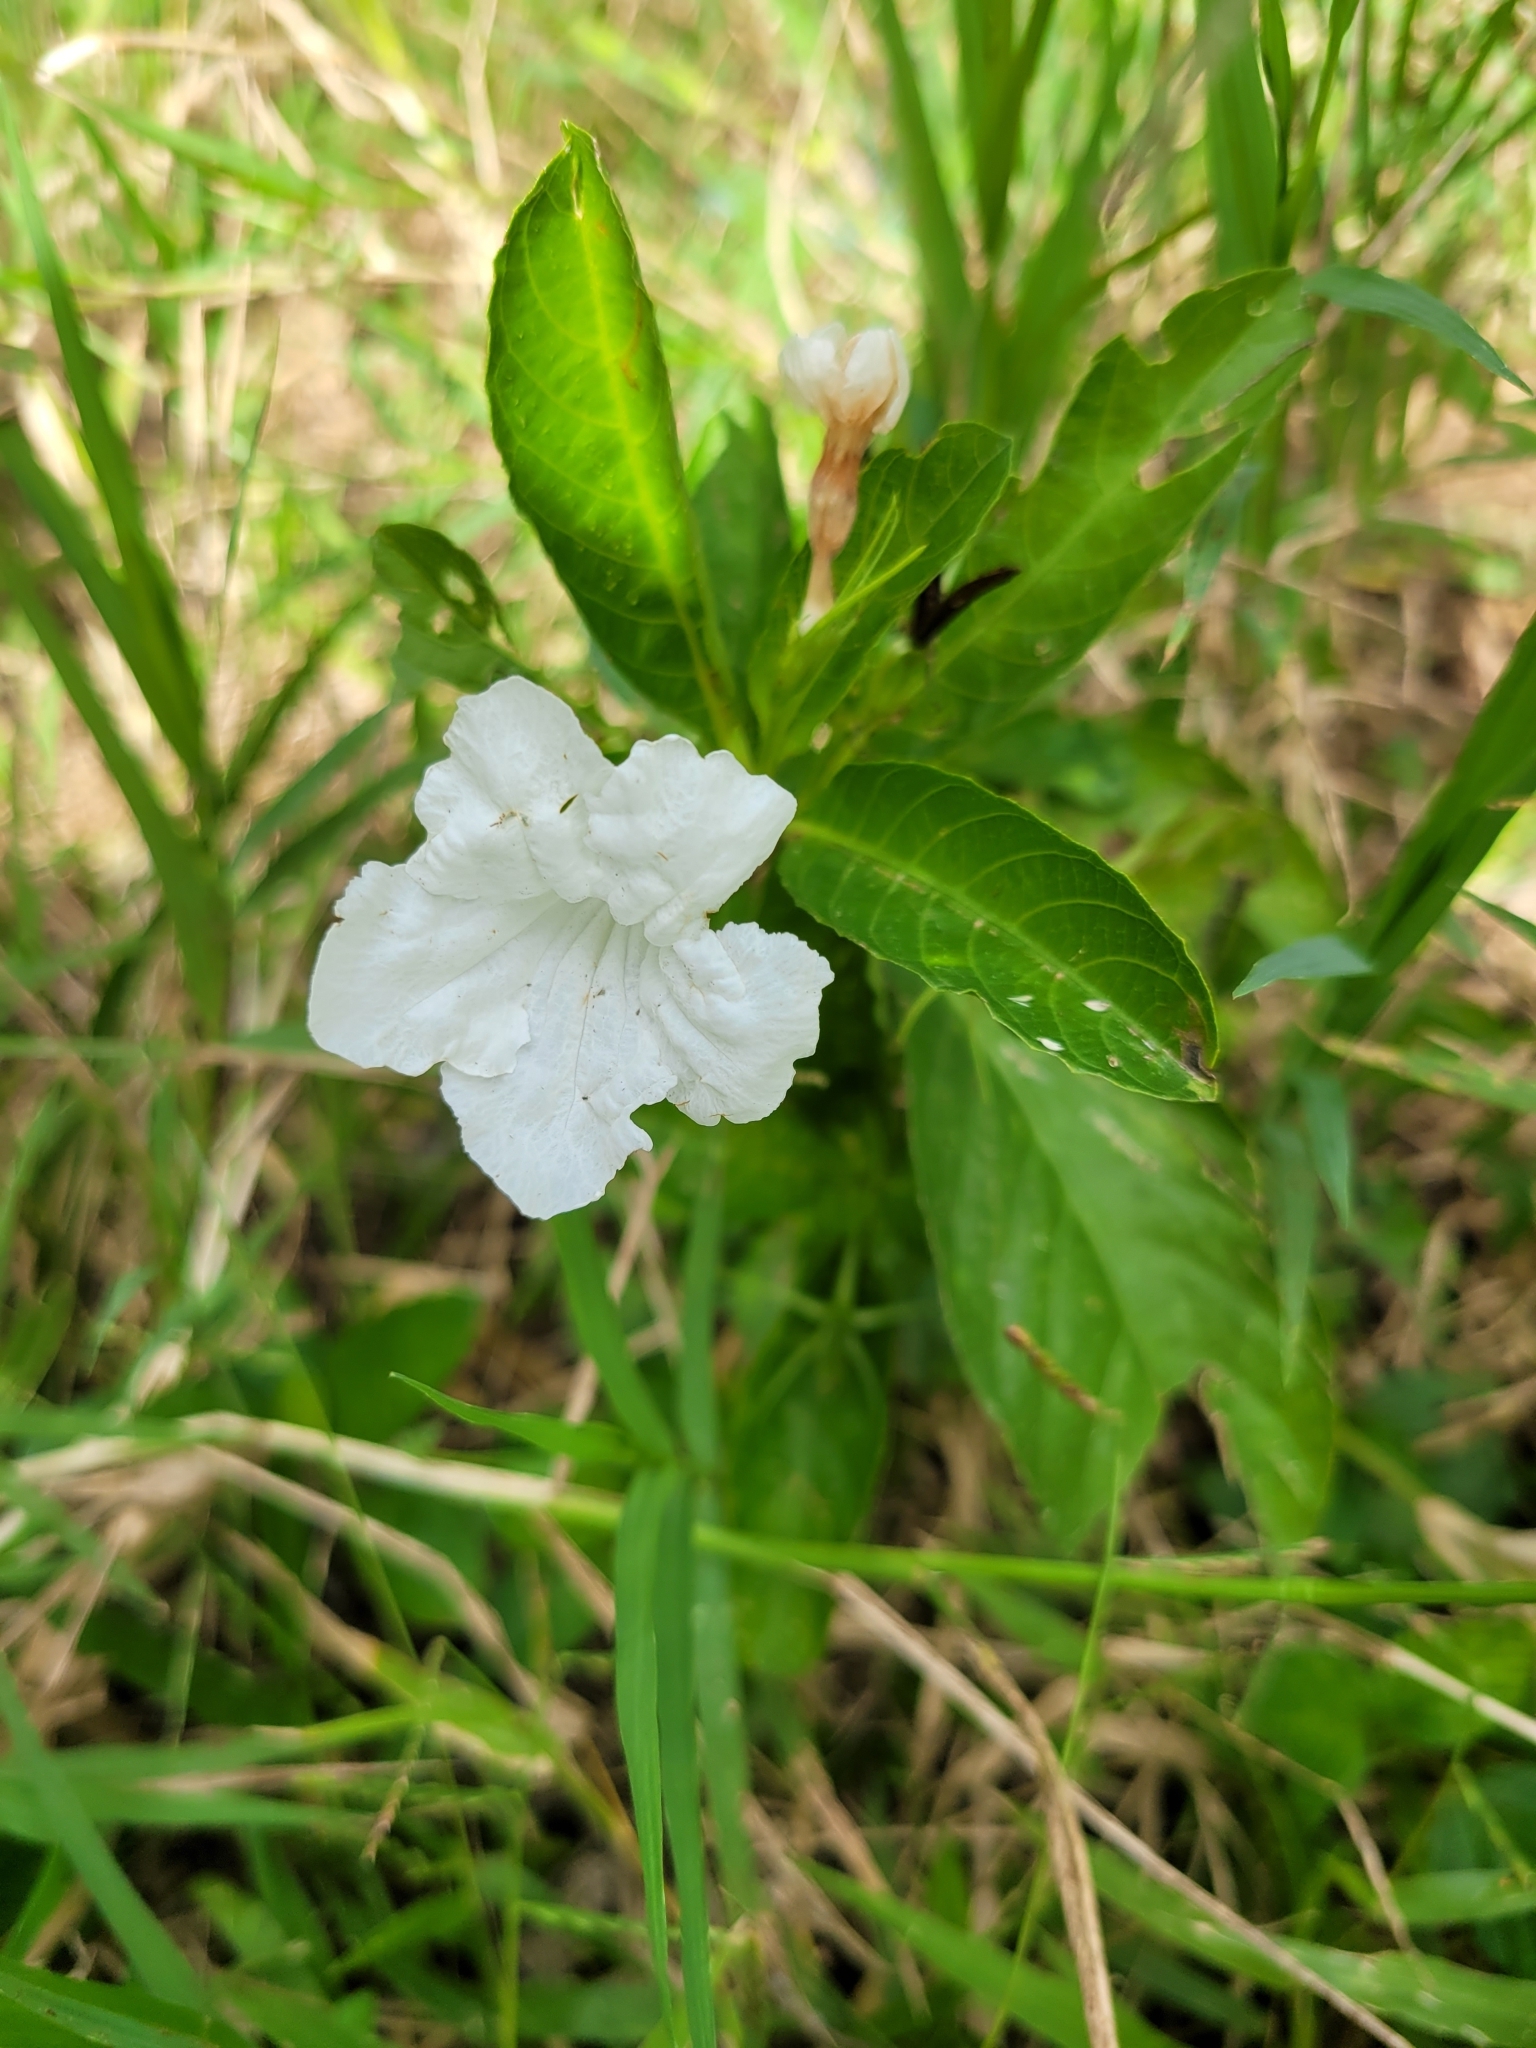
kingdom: Plantae
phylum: Tracheophyta
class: Magnoliopsida
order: Lamiales
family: Acanthaceae
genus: Ruellia
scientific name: Ruellia tuberosa
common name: Devil's bit
